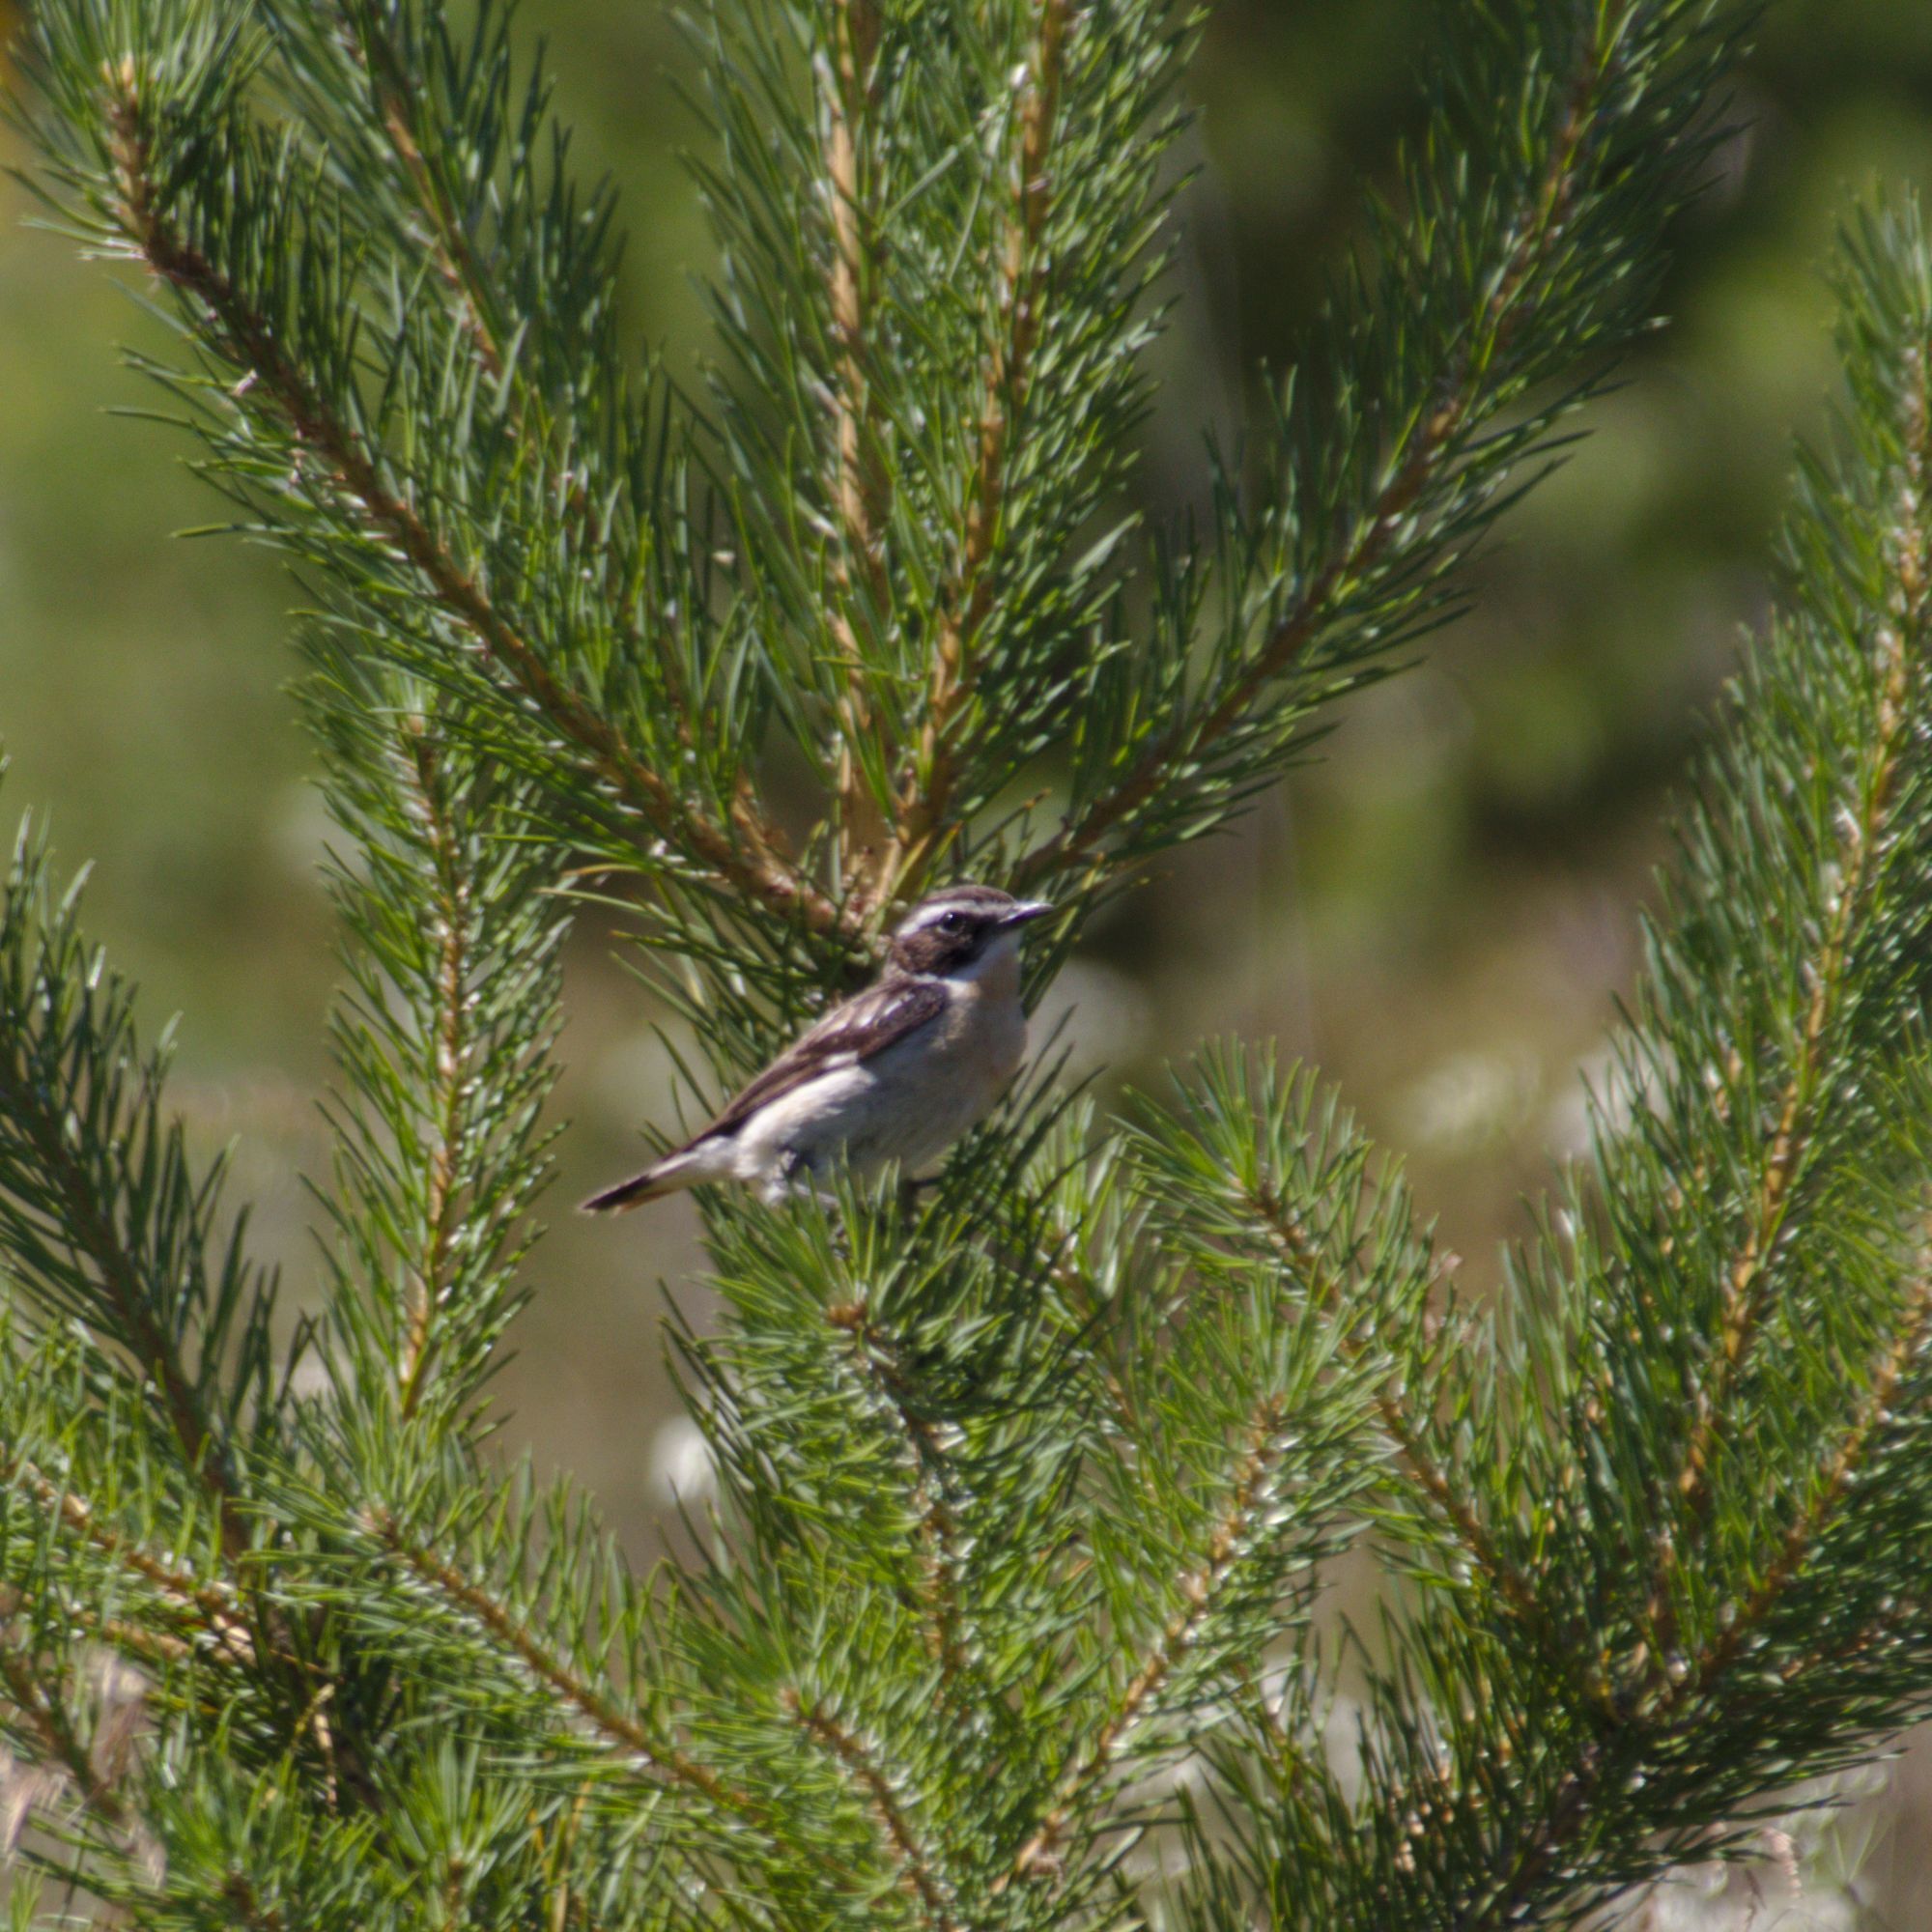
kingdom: Animalia
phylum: Chordata
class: Aves
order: Passeriformes
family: Muscicapidae
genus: Saxicola
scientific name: Saxicola rubetra
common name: Whinchat
